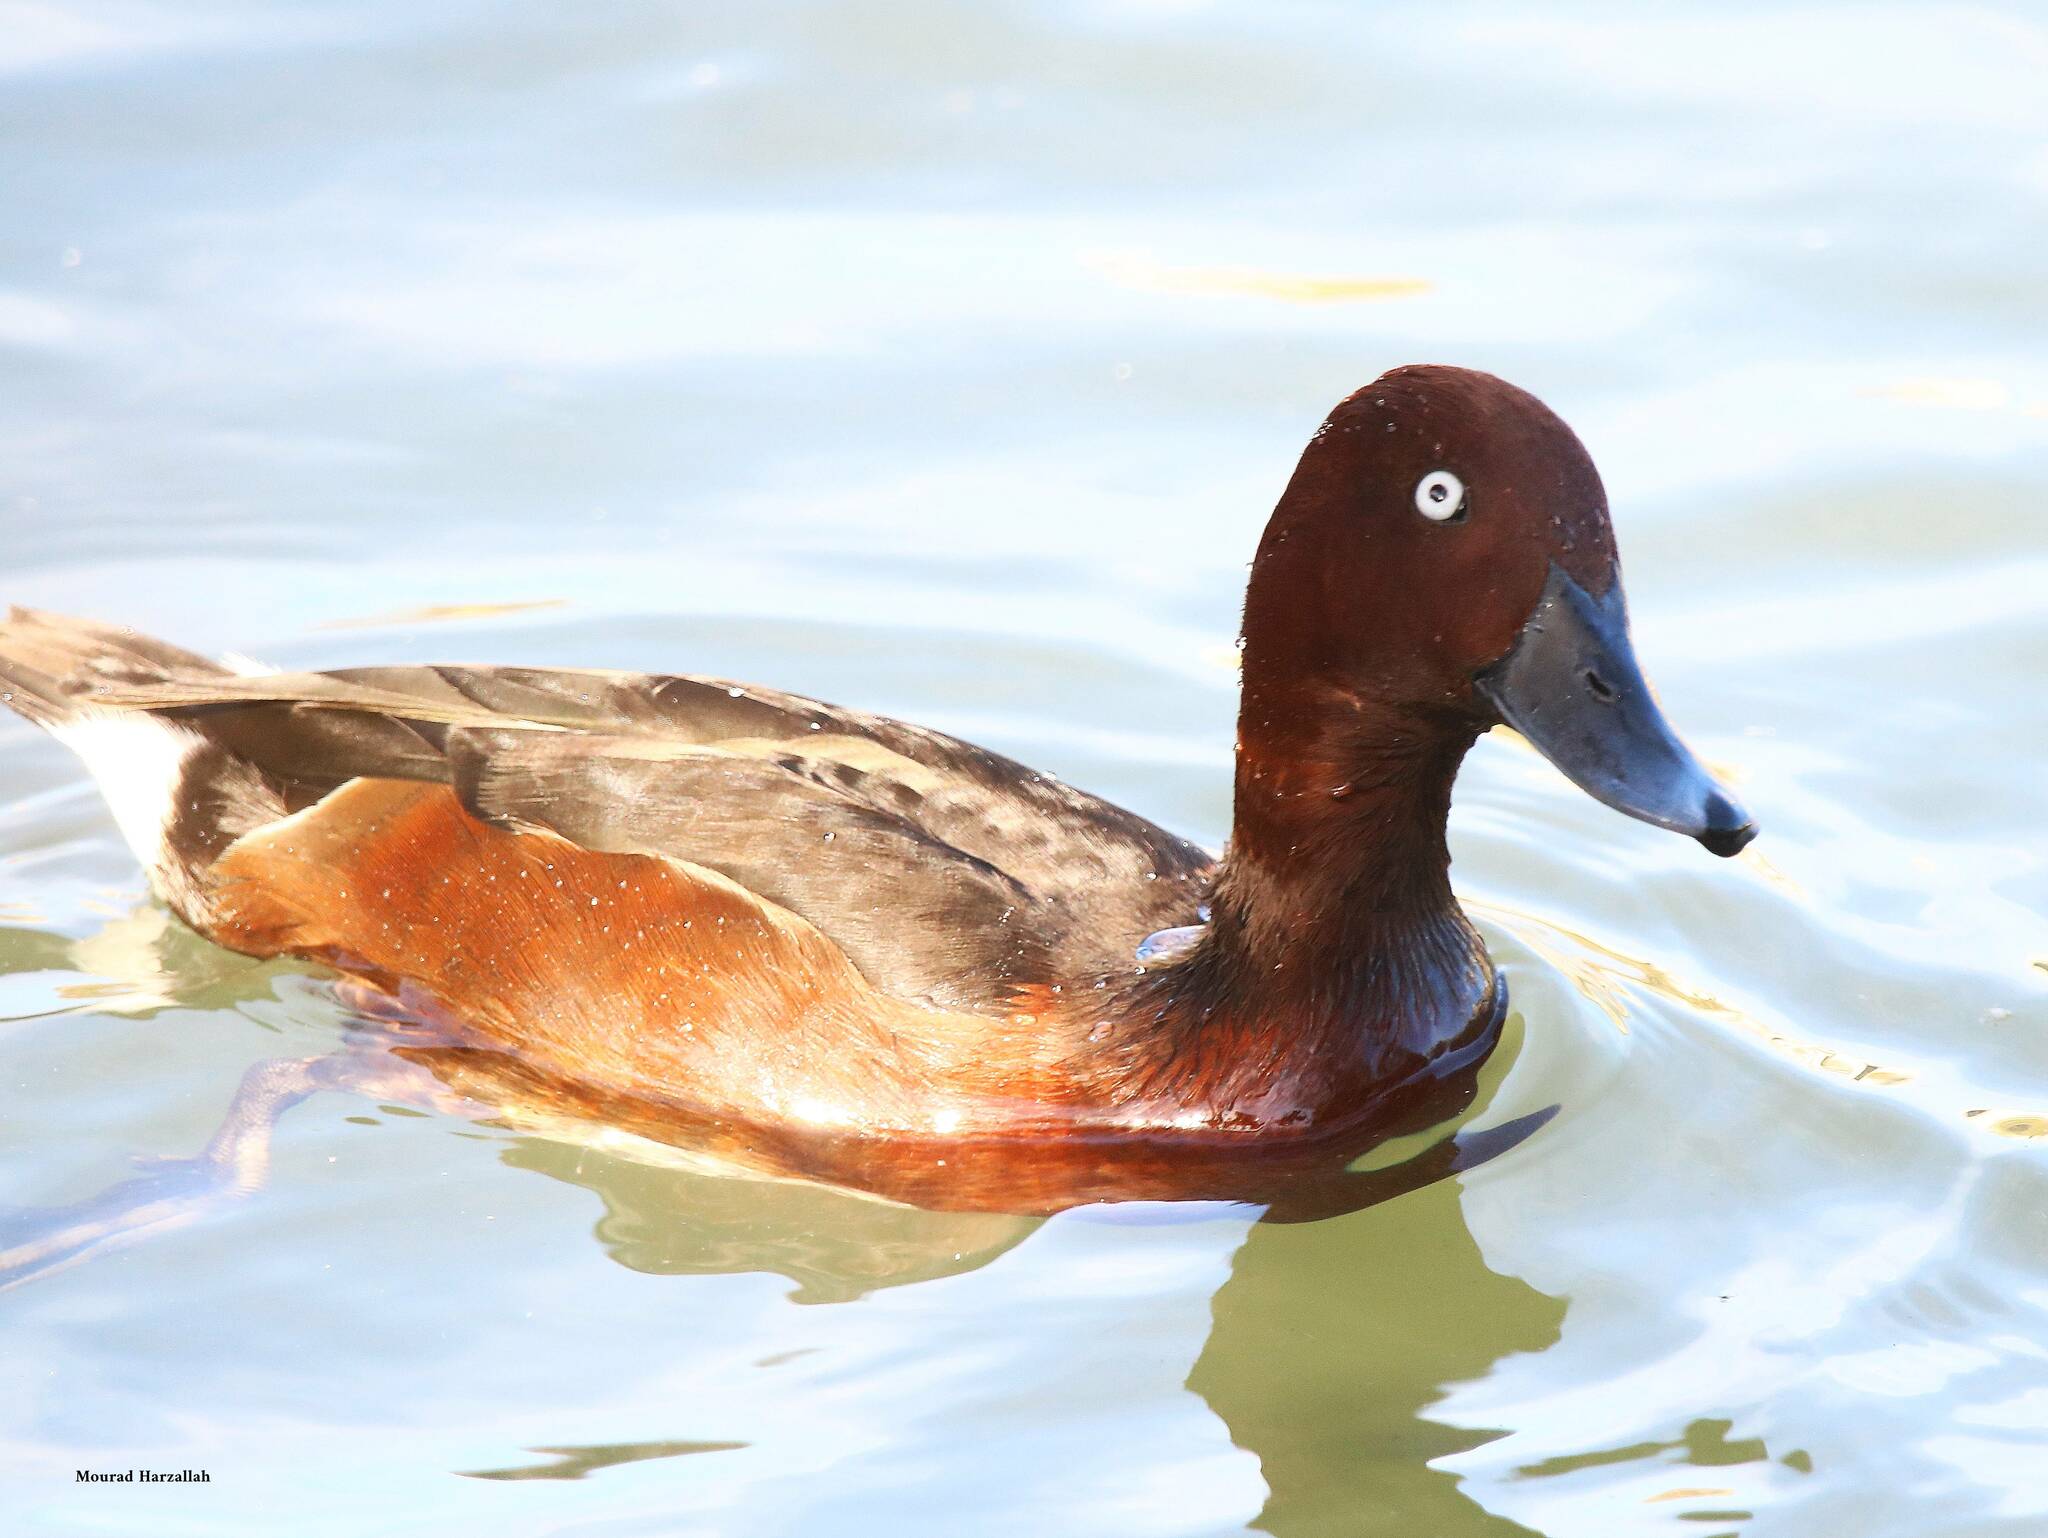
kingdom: Animalia
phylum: Chordata
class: Aves
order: Anseriformes
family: Anatidae
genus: Aythya
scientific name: Aythya nyroca
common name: Ferruginous duck
